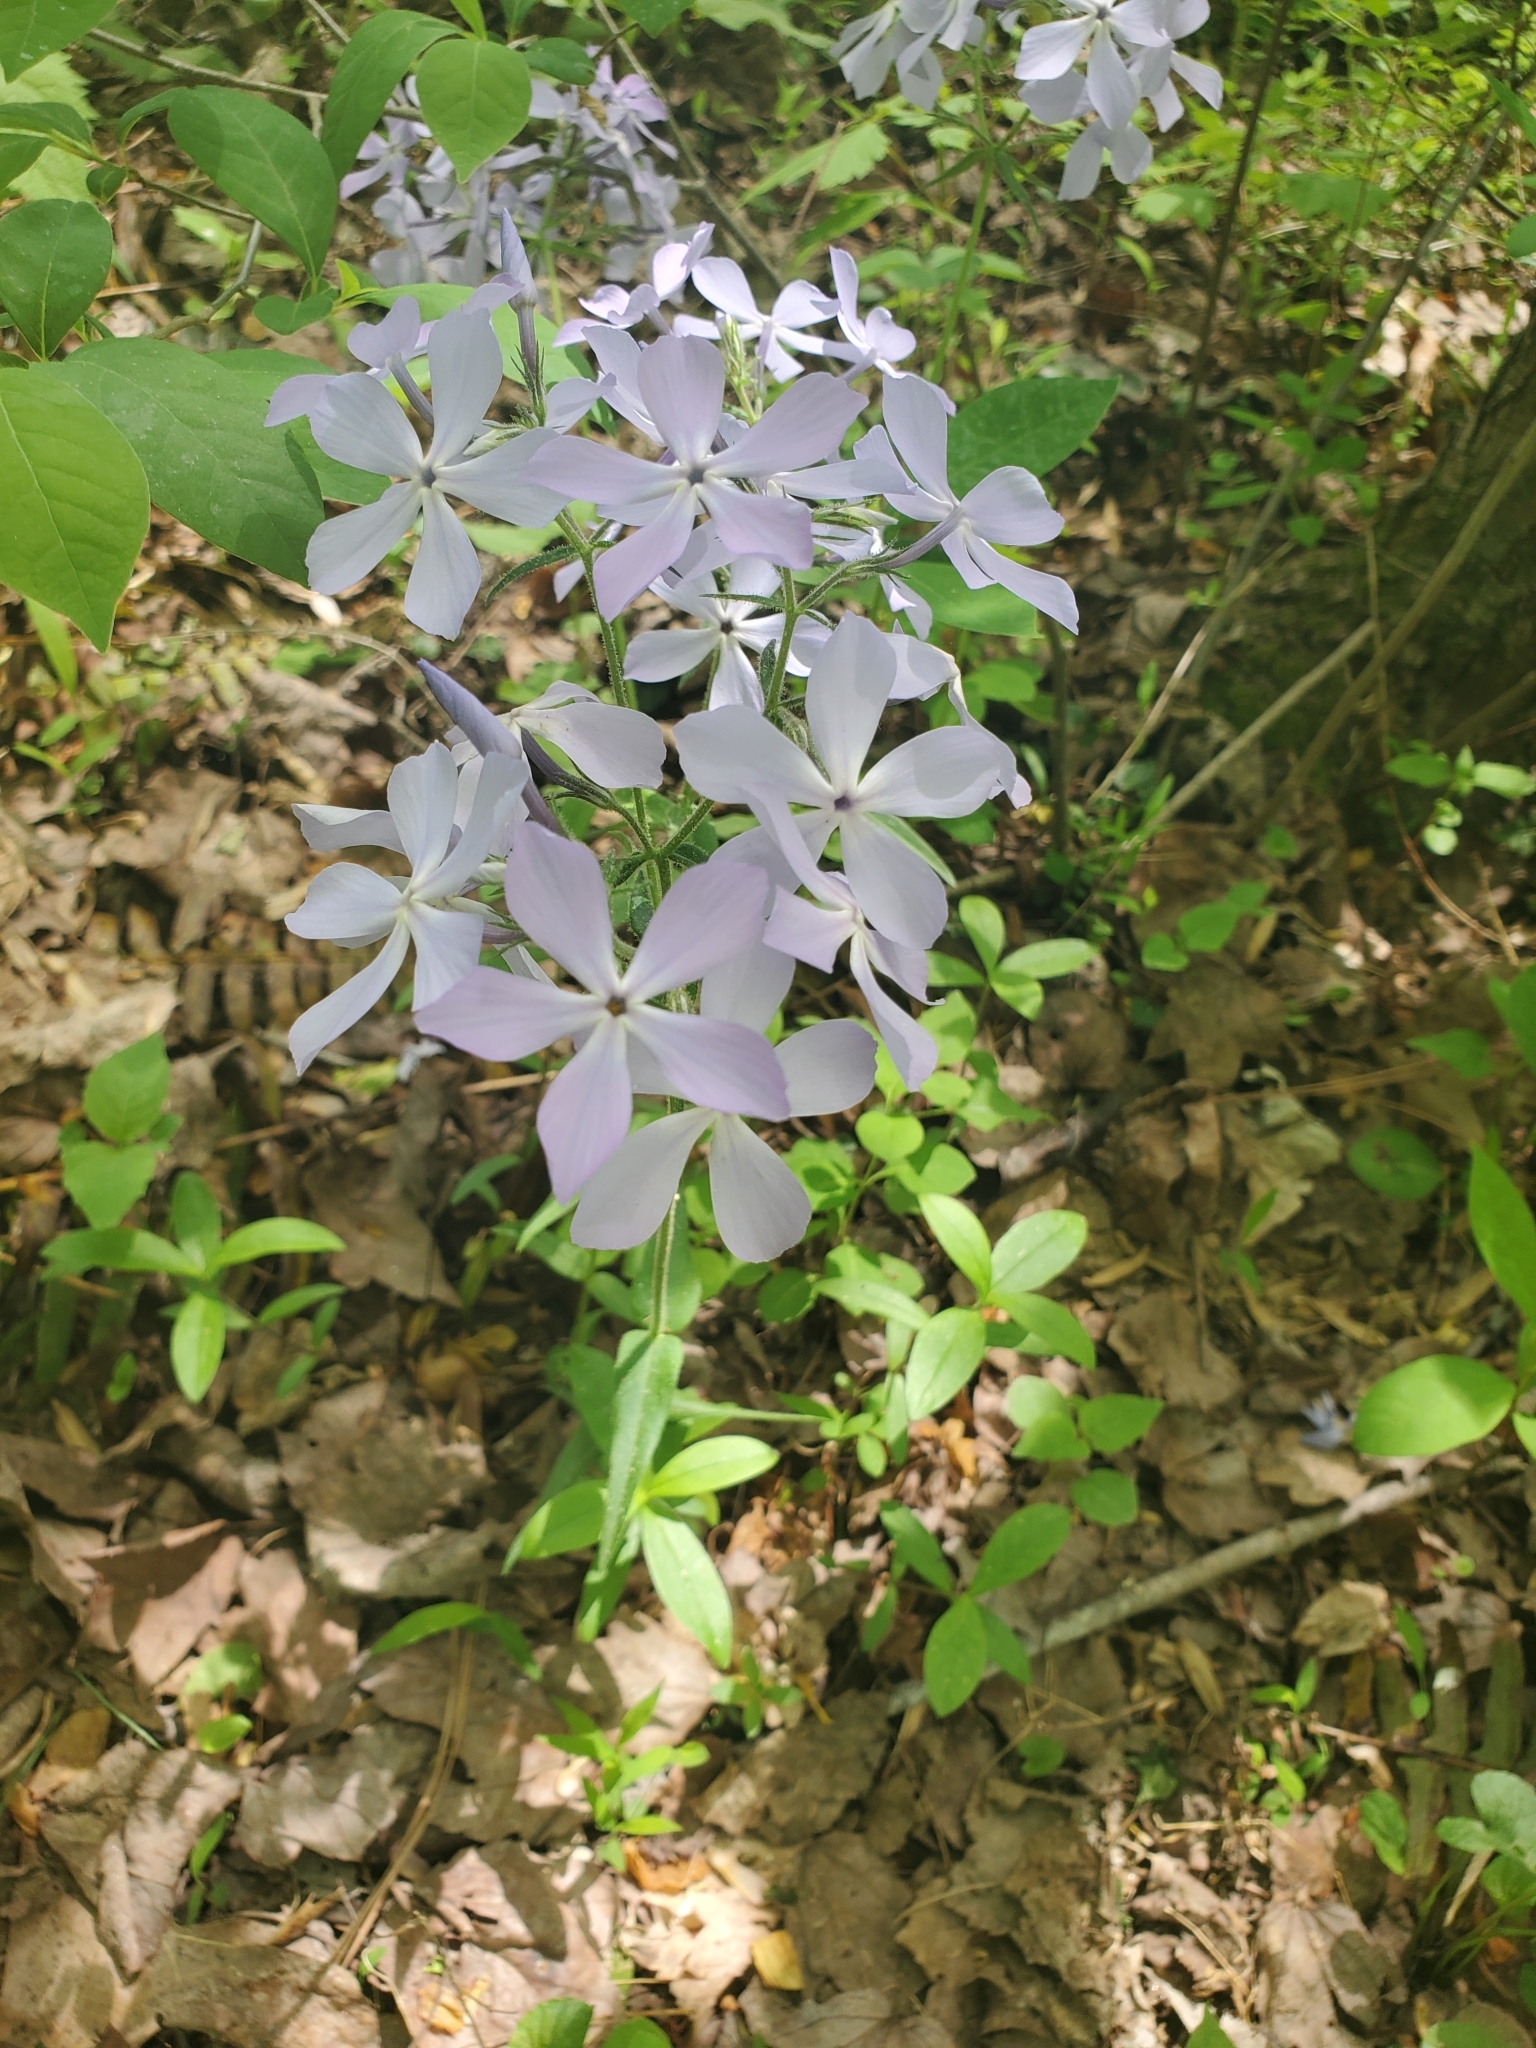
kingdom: Plantae
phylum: Tracheophyta
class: Magnoliopsida
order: Ericales
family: Polemoniaceae
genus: Phlox
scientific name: Phlox divaricata
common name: Blue phlox
